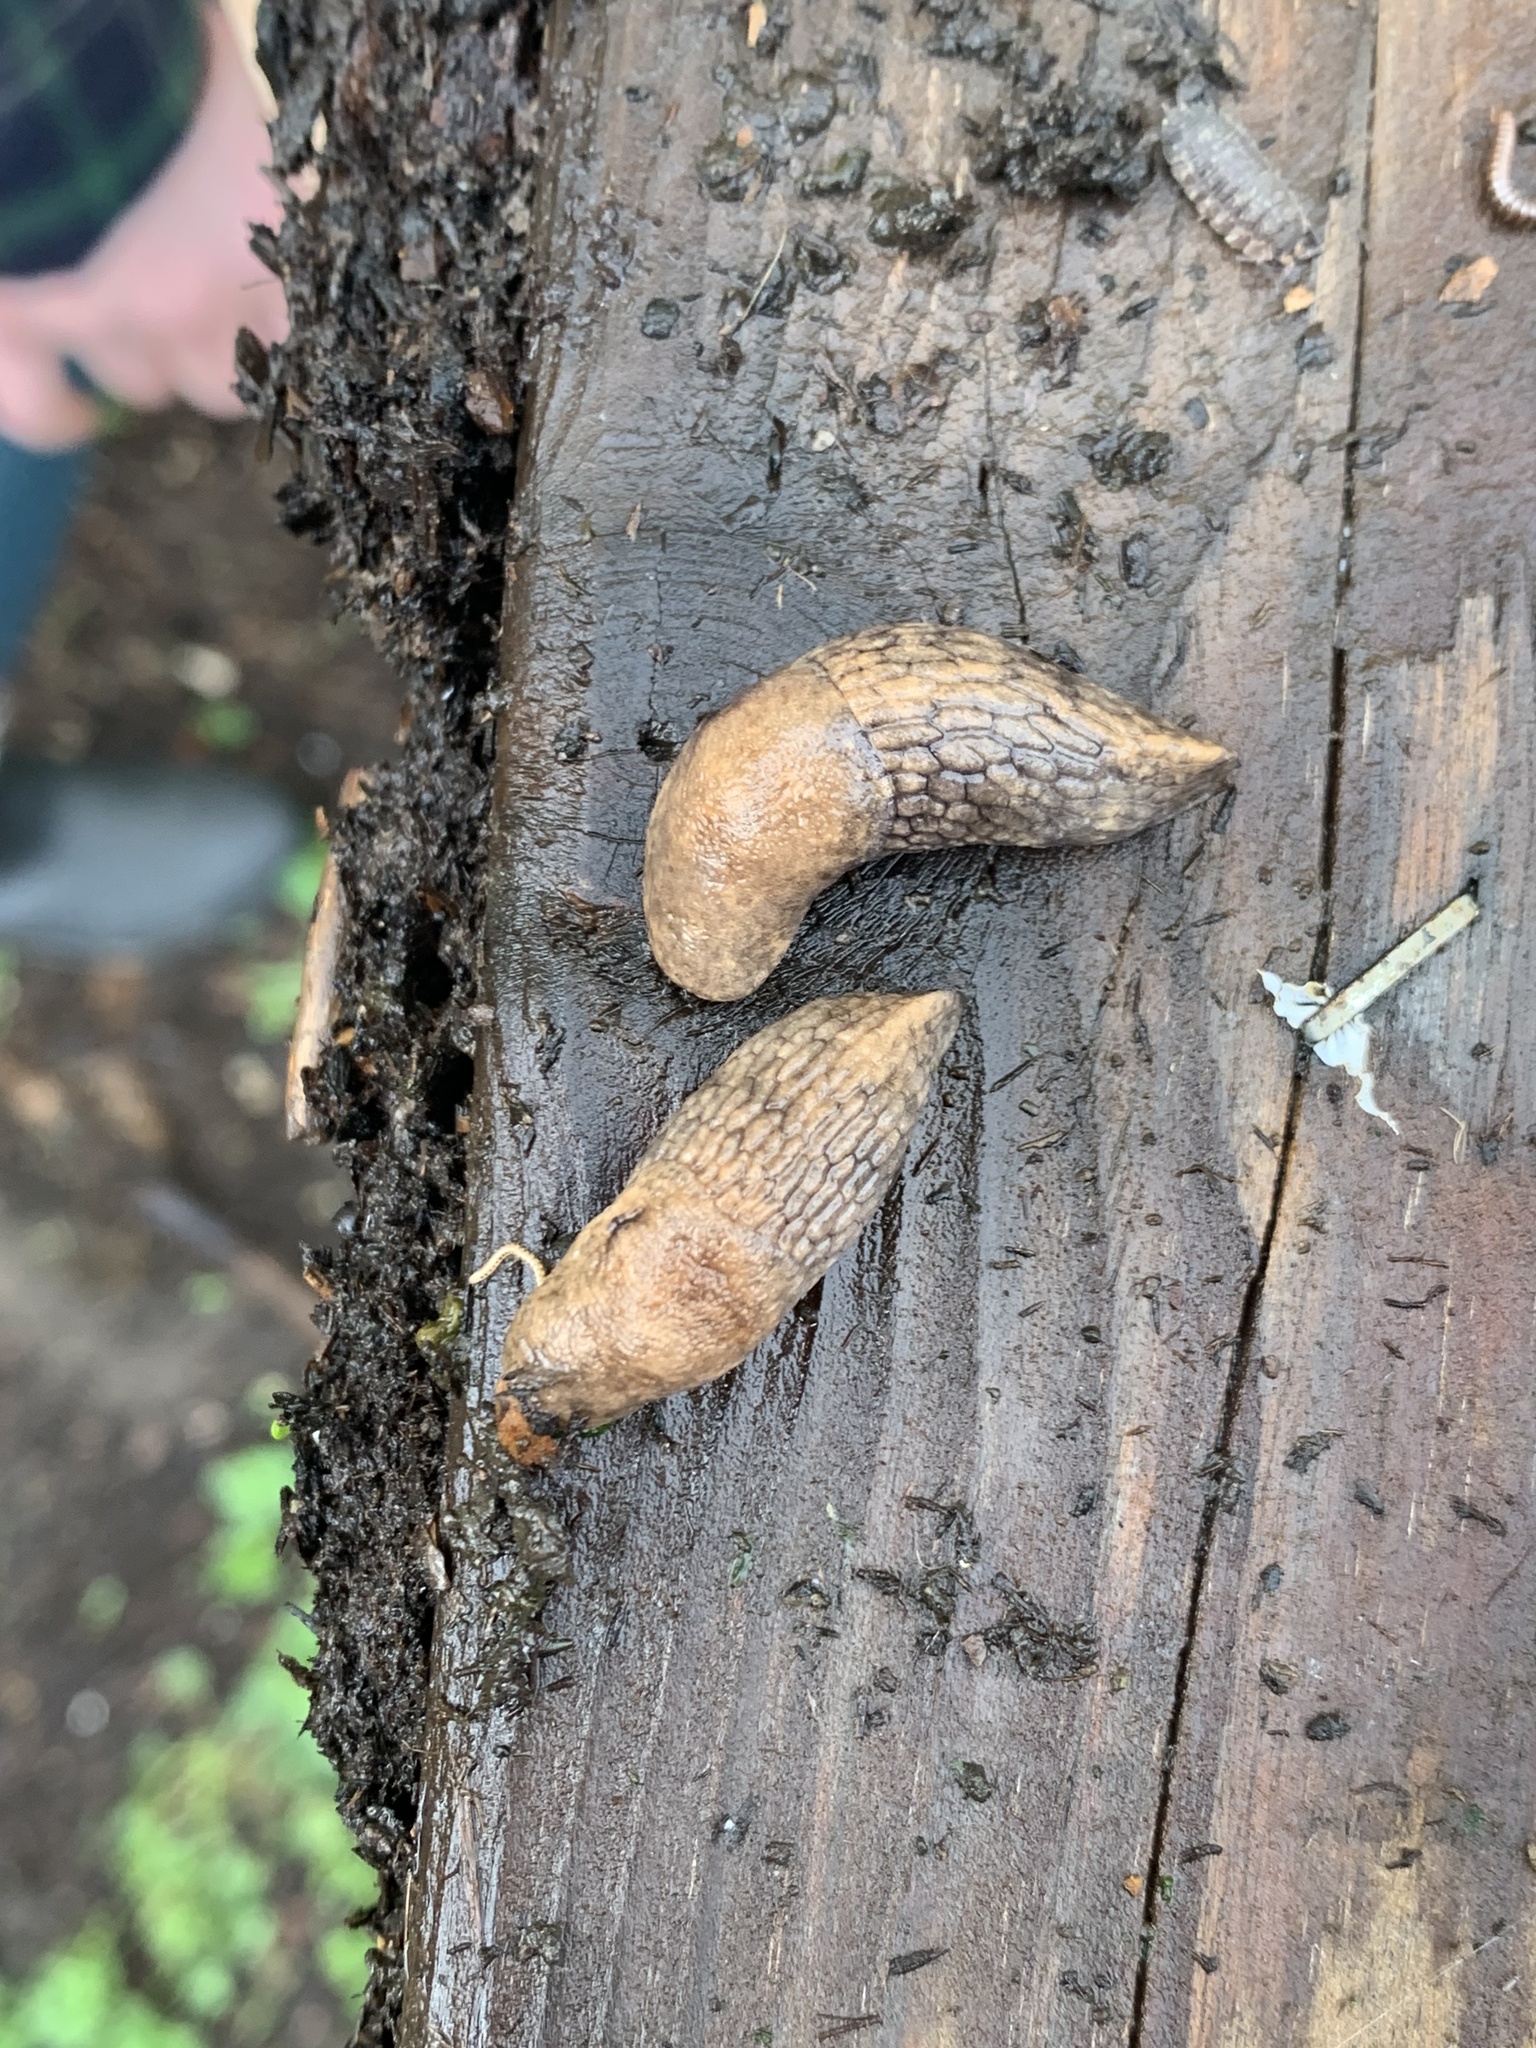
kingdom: Animalia
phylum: Mollusca
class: Gastropoda
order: Stylommatophora
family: Agriolimacidae
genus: Deroceras
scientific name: Deroceras reticulatum
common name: Gray field slug
